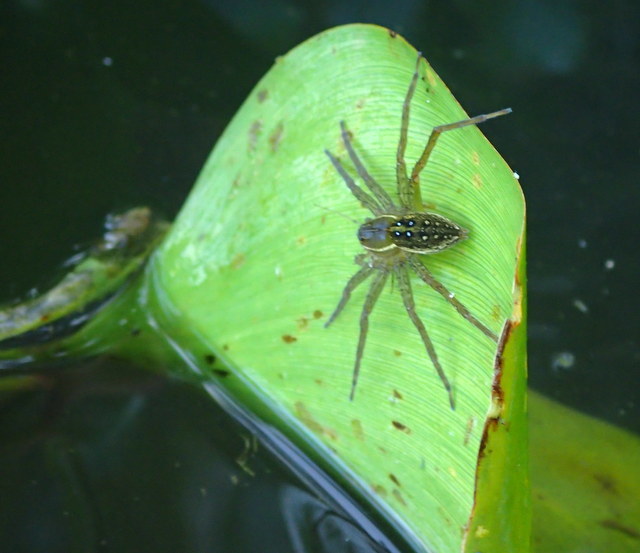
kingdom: Animalia
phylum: Arthropoda
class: Arachnida
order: Araneae
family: Pisauridae
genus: Dolomedes
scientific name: Dolomedes triton
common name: Six-spotted fishing spider
